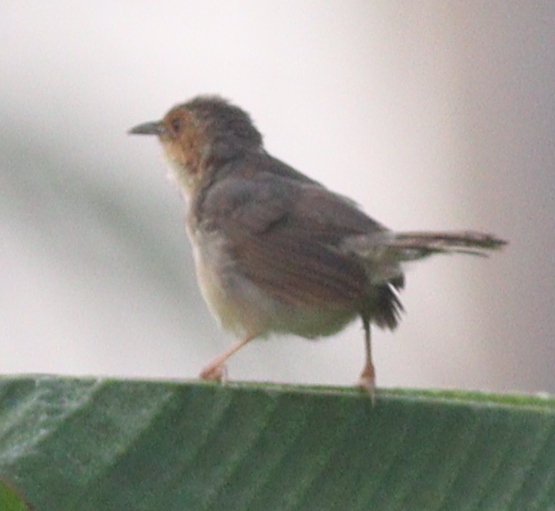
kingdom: Animalia
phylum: Chordata
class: Aves
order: Passeriformes
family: Cisticolidae
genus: Cisticola
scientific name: Cisticola erythrops
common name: Red-faced cisticola
